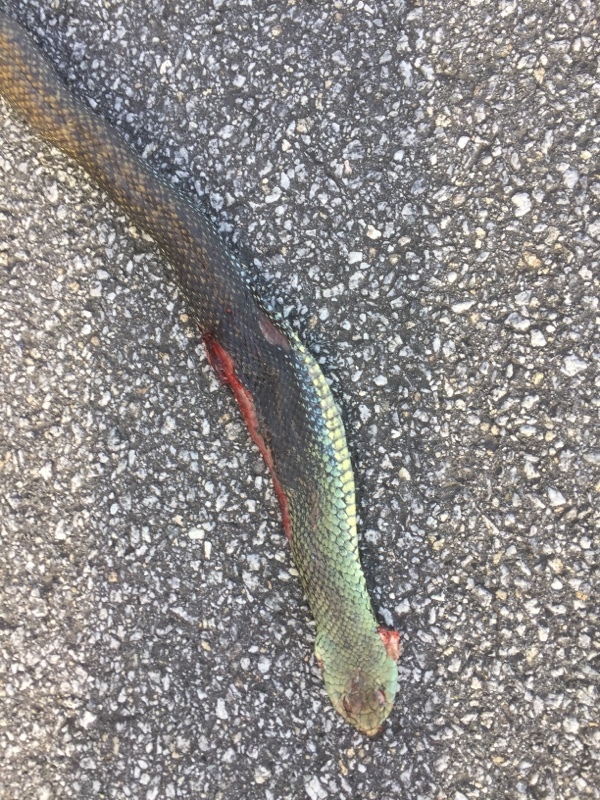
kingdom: Animalia
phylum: Chordata
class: Squamata
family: Psammophiidae
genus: Malpolon
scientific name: Malpolon monspessulanus
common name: Montpellier snake
